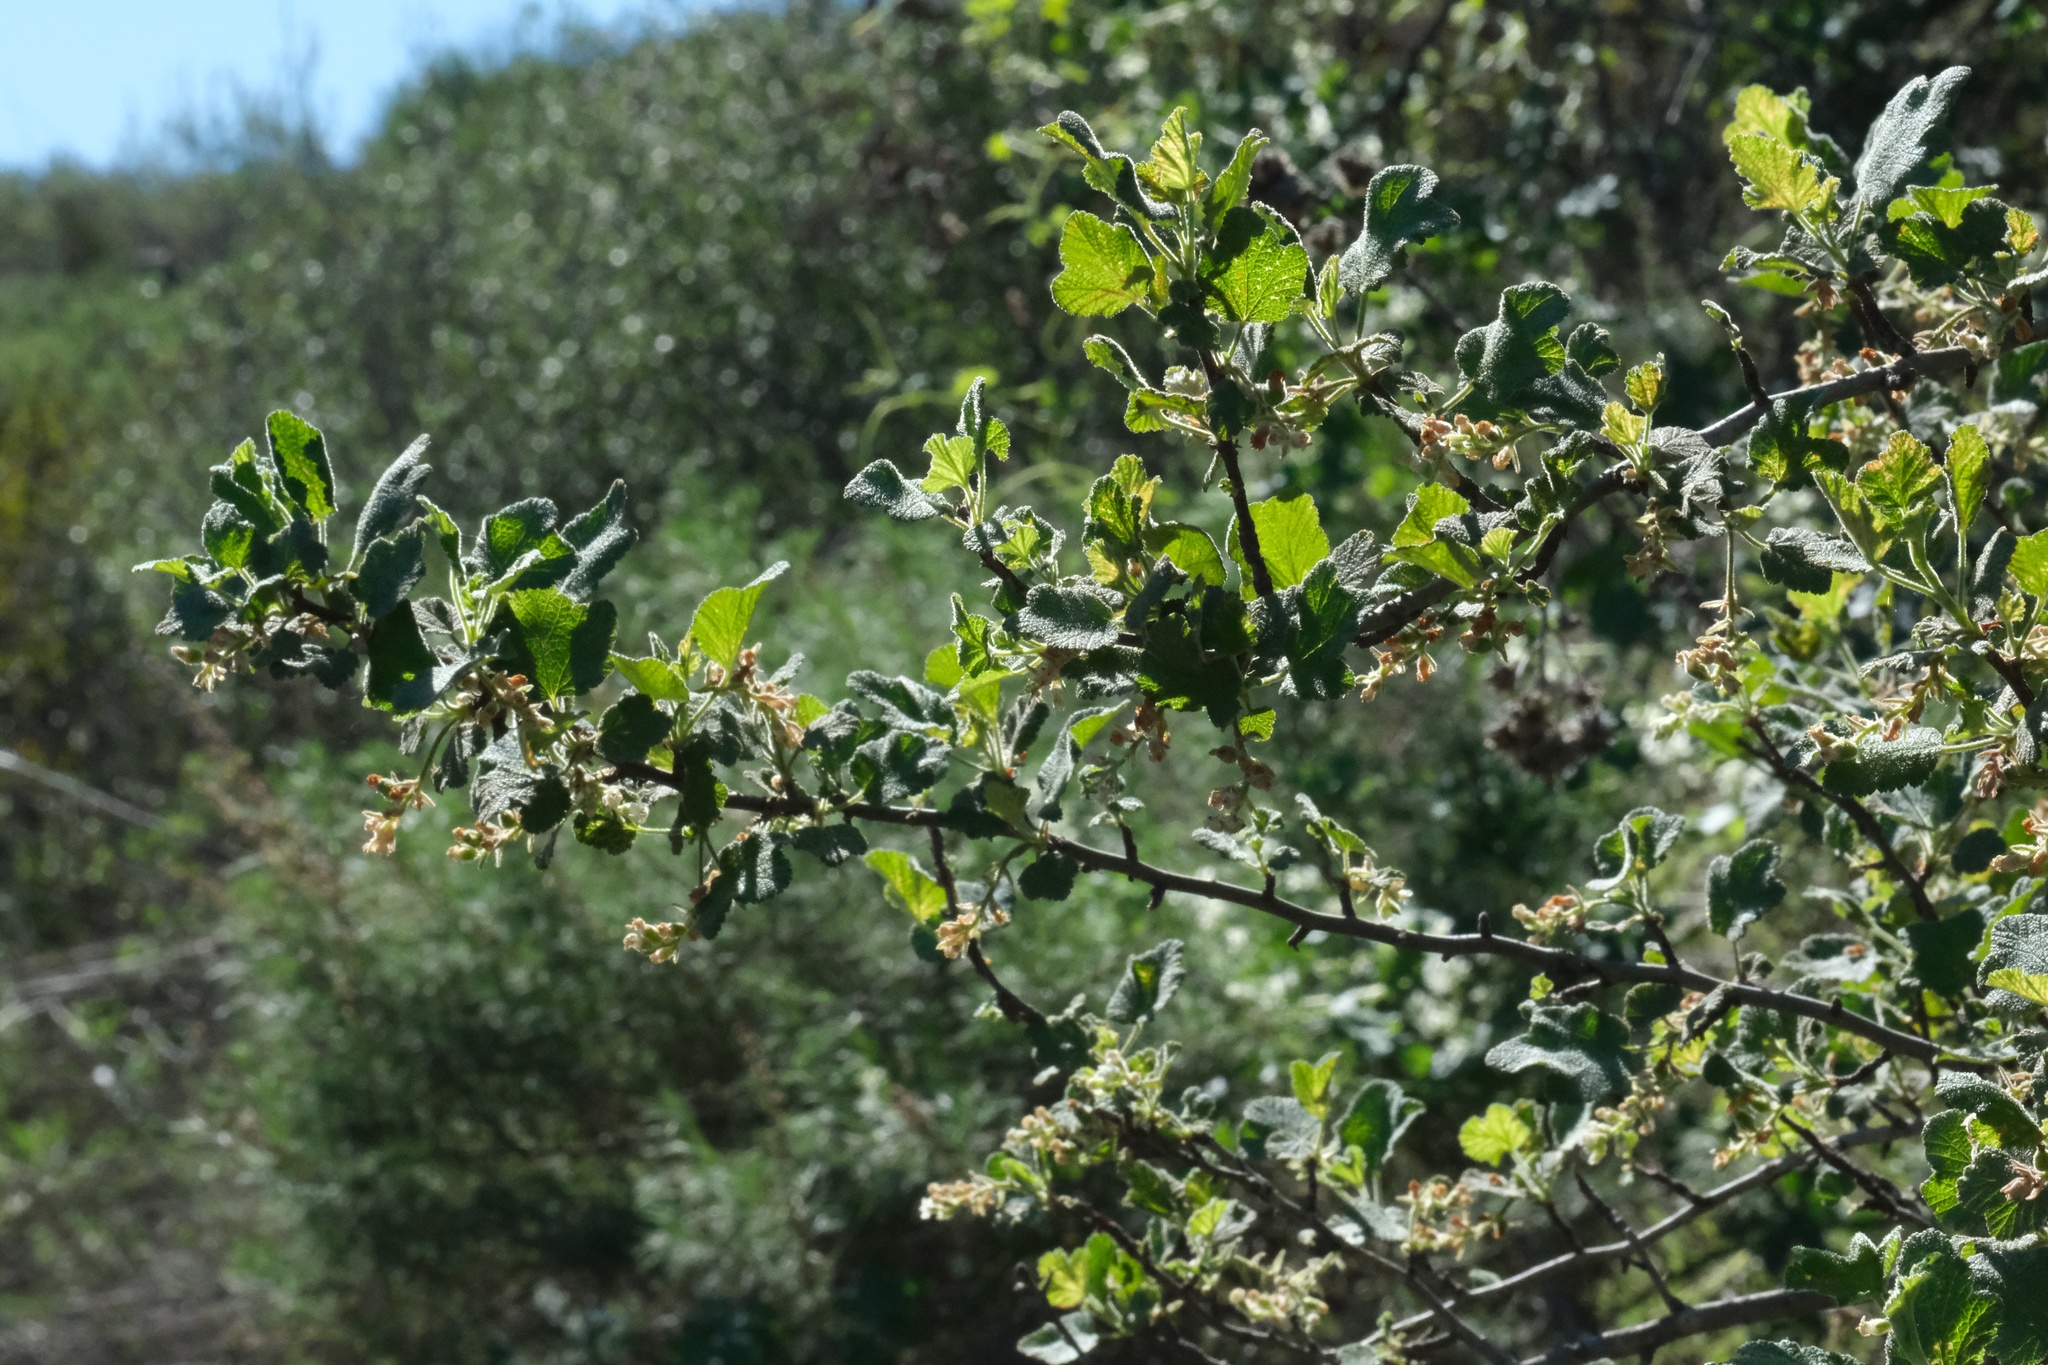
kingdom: Plantae
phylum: Tracheophyta
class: Magnoliopsida
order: Saxifragales
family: Grossulariaceae
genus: Ribes
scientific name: Ribes indecorum
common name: White-flower currant
